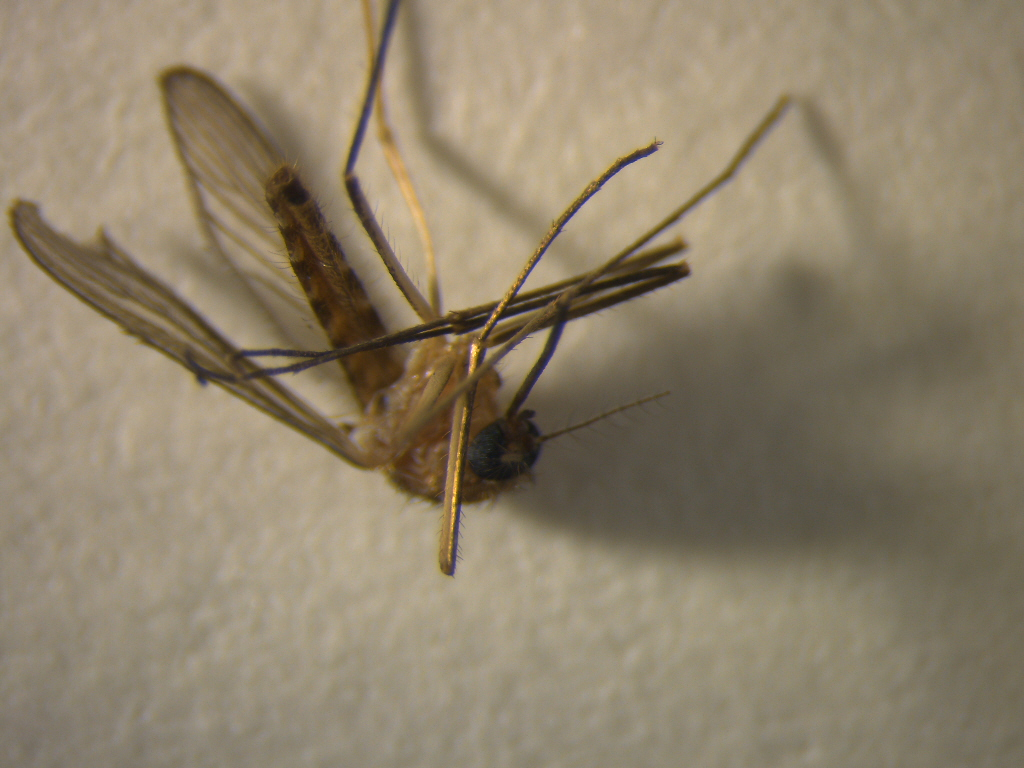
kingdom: Animalia
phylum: Arthropoda
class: Insecta
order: Diptera
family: Culicidae
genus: Culex
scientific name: Culex quinquefasciatus
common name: Southern house mosquito
